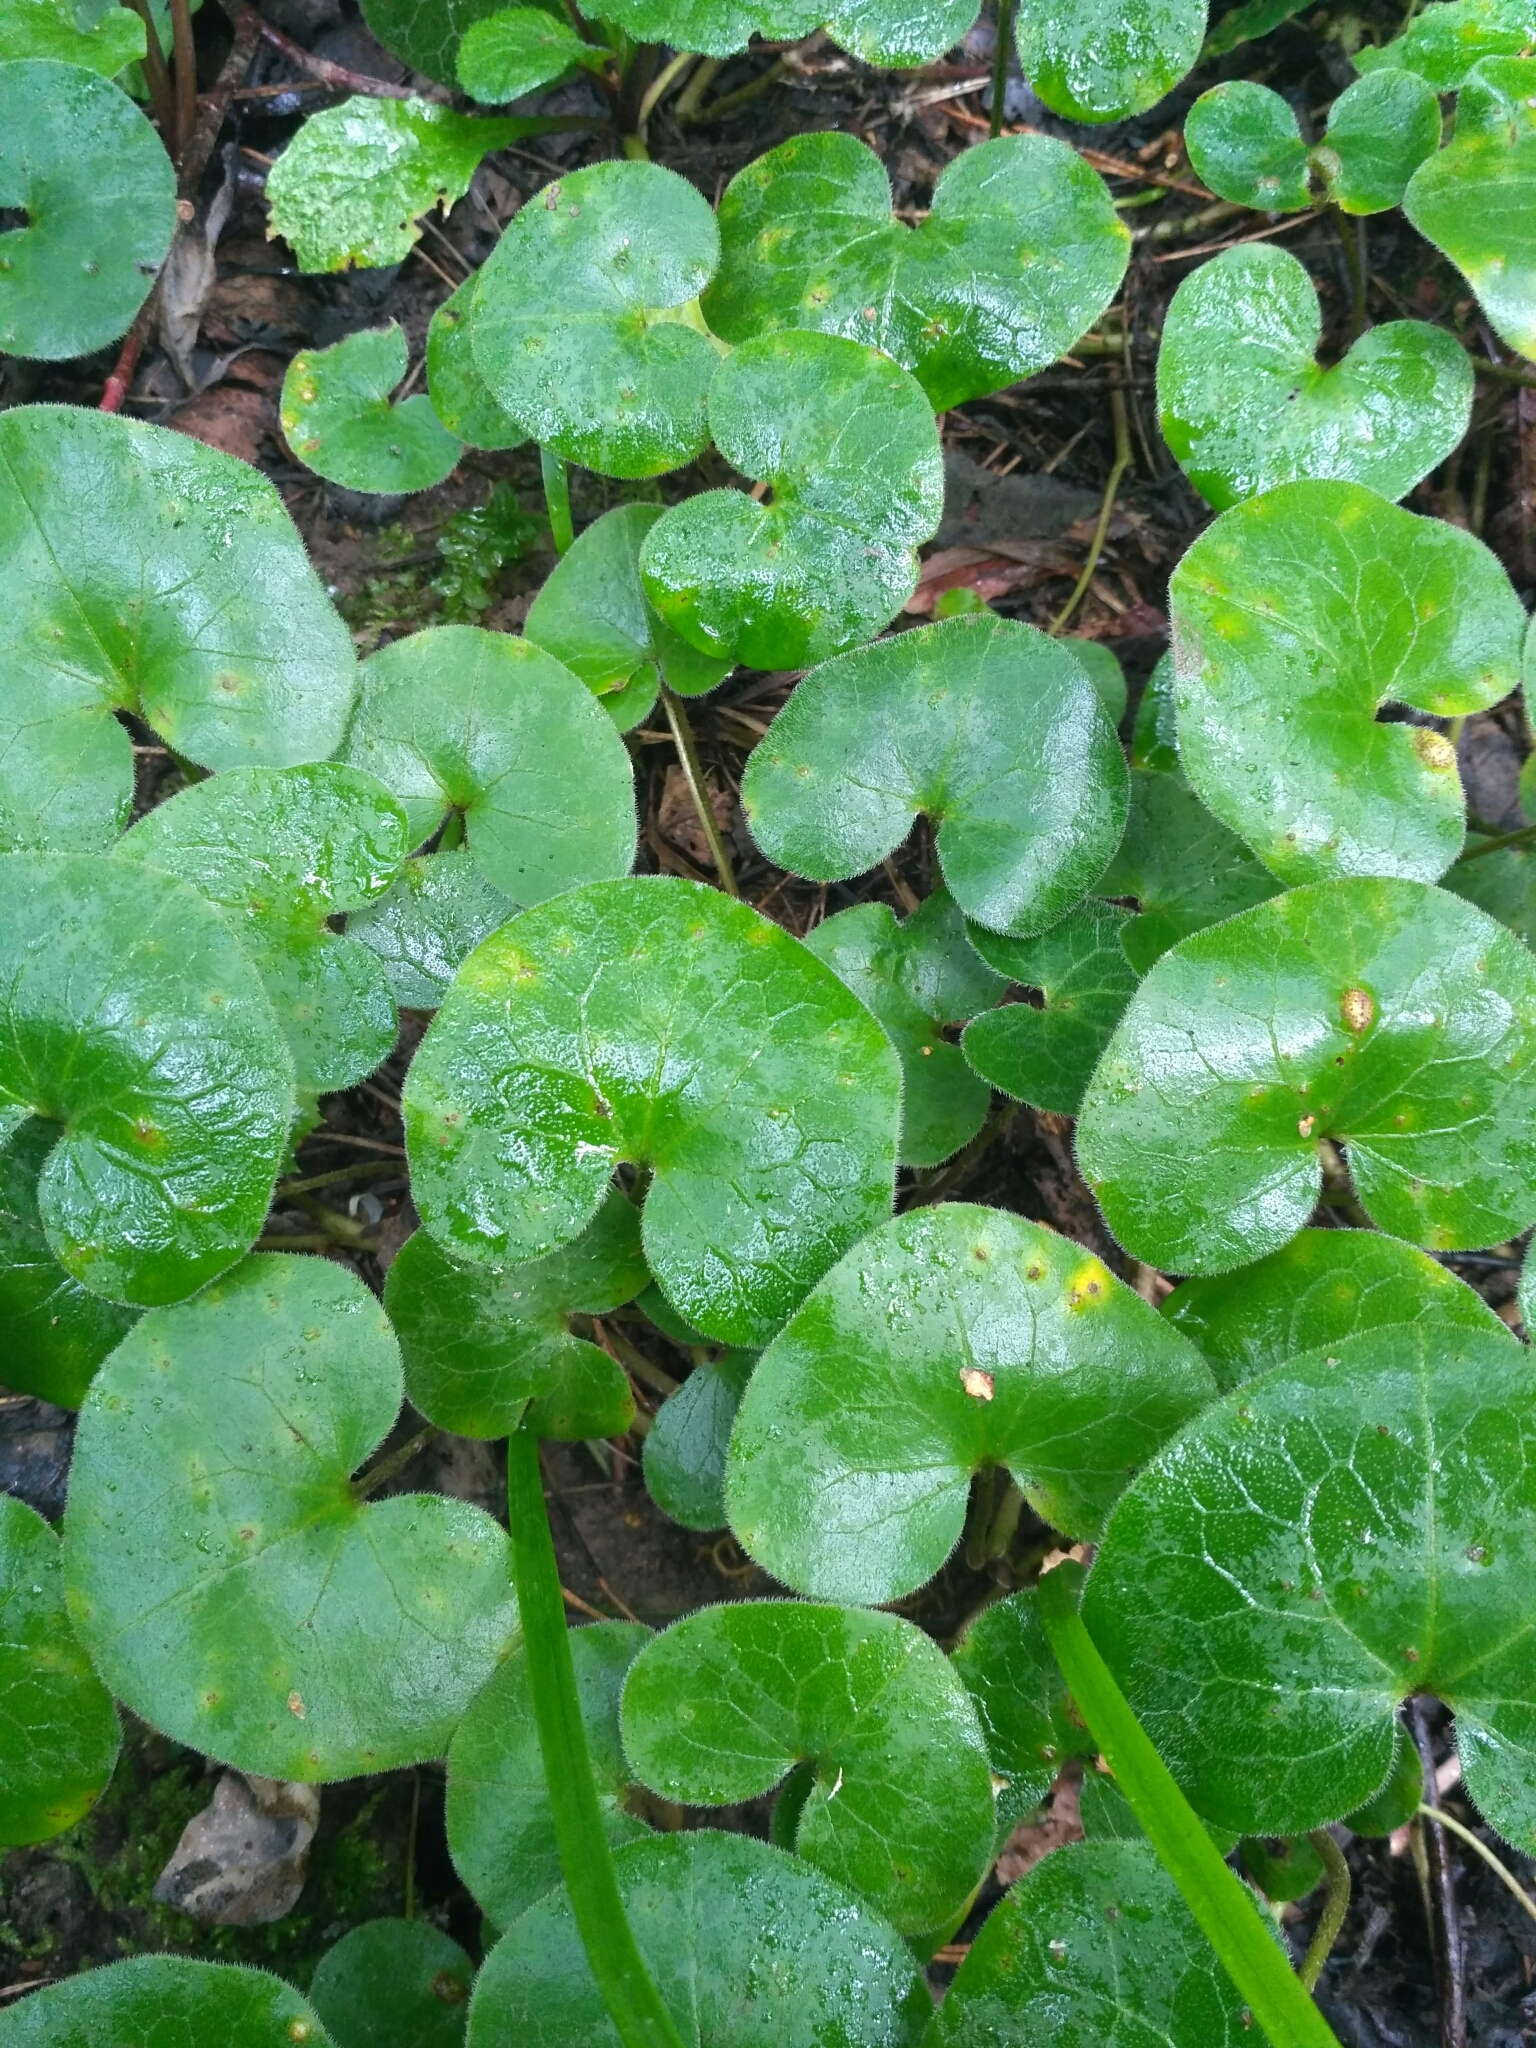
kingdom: Plantae
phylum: Tracheophyta
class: Magnoliopsida
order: Piperales
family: Aristolochiaceae
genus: Asarum
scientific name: Asarum europaeum
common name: Asarabacca
